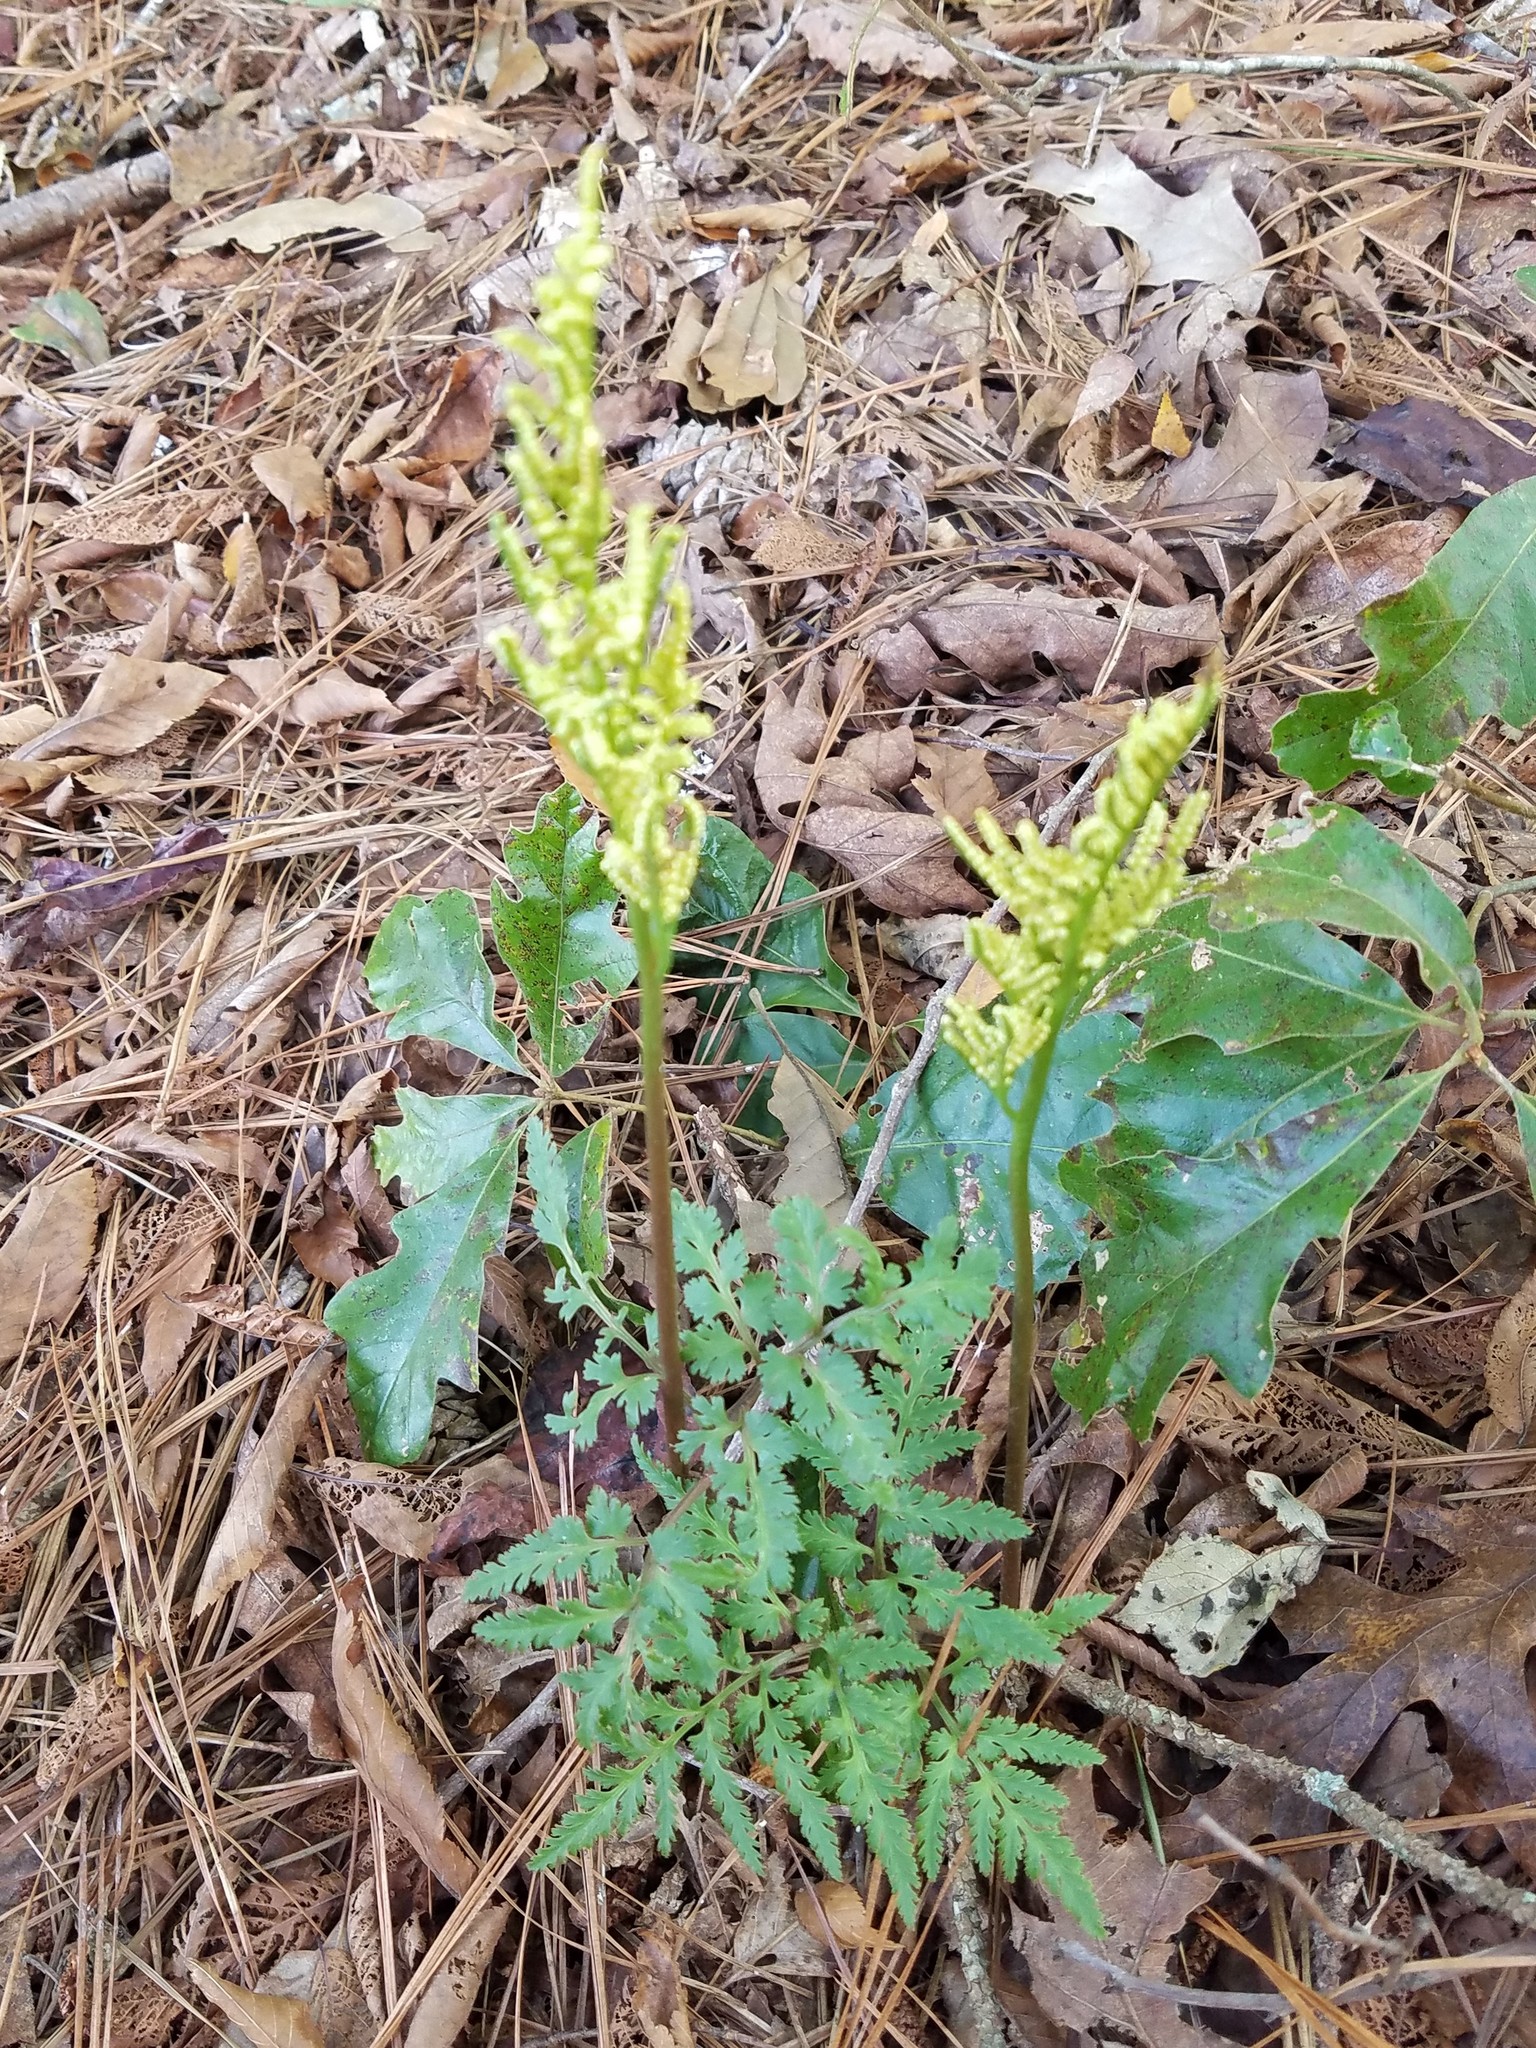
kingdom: Plantae
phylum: Tracheophyta
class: Polypodiopsida
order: Ophioglossales
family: Ophioglossaceae
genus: Sceptridium
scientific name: Sceptridium dissectum
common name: Cut-leaved grapefern
